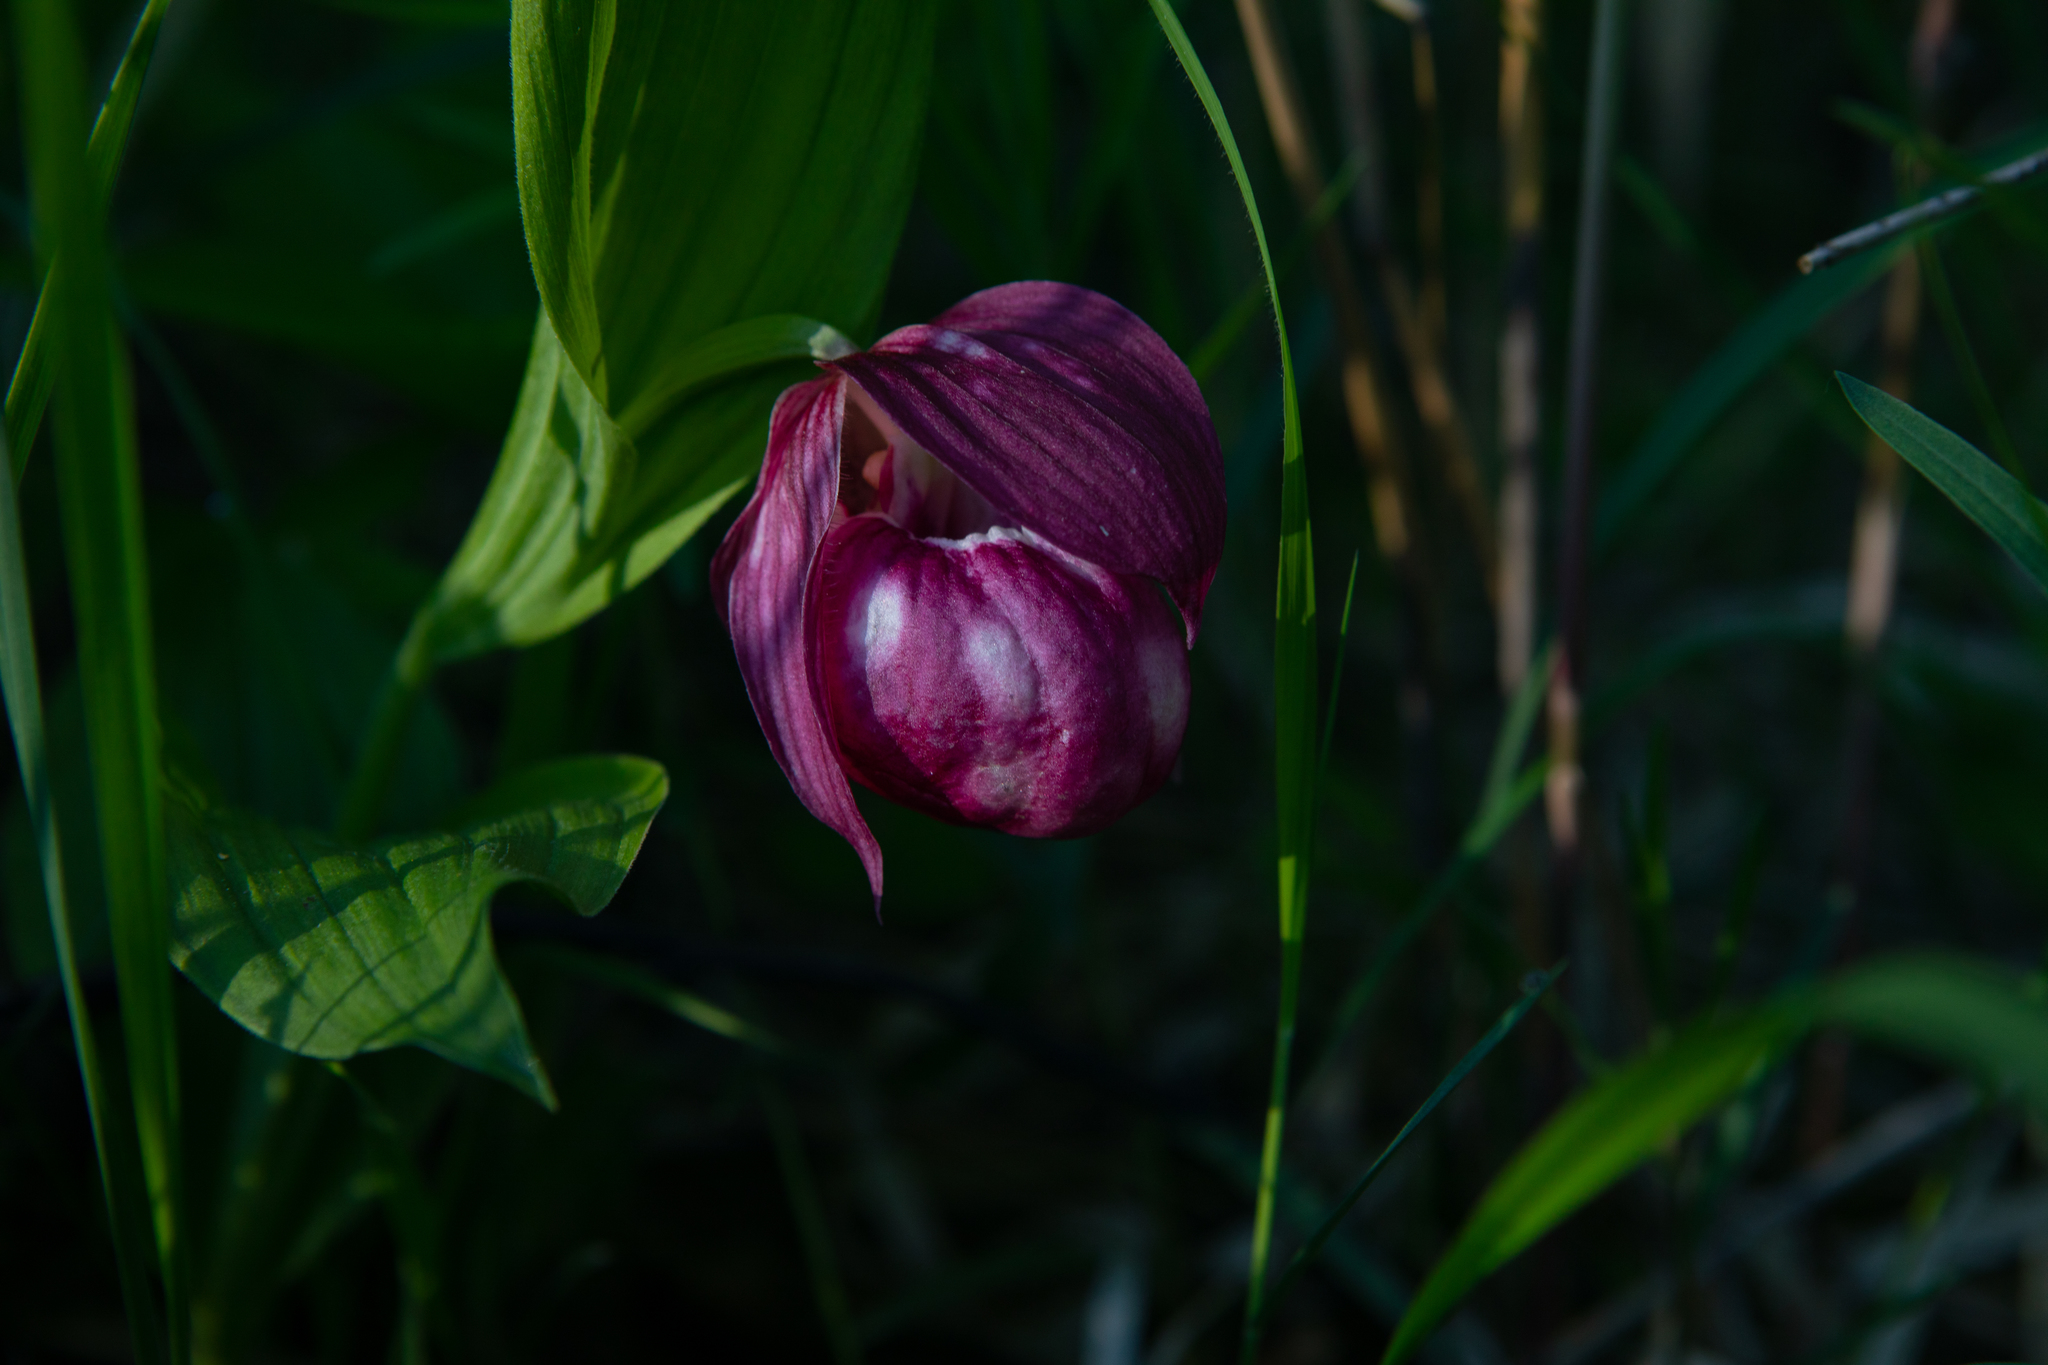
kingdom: Plantae
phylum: Tracheophyta
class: Liliopsida
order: Asparagales
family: Orchidaceae
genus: Cypripedium
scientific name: Cypripedium macranthos
